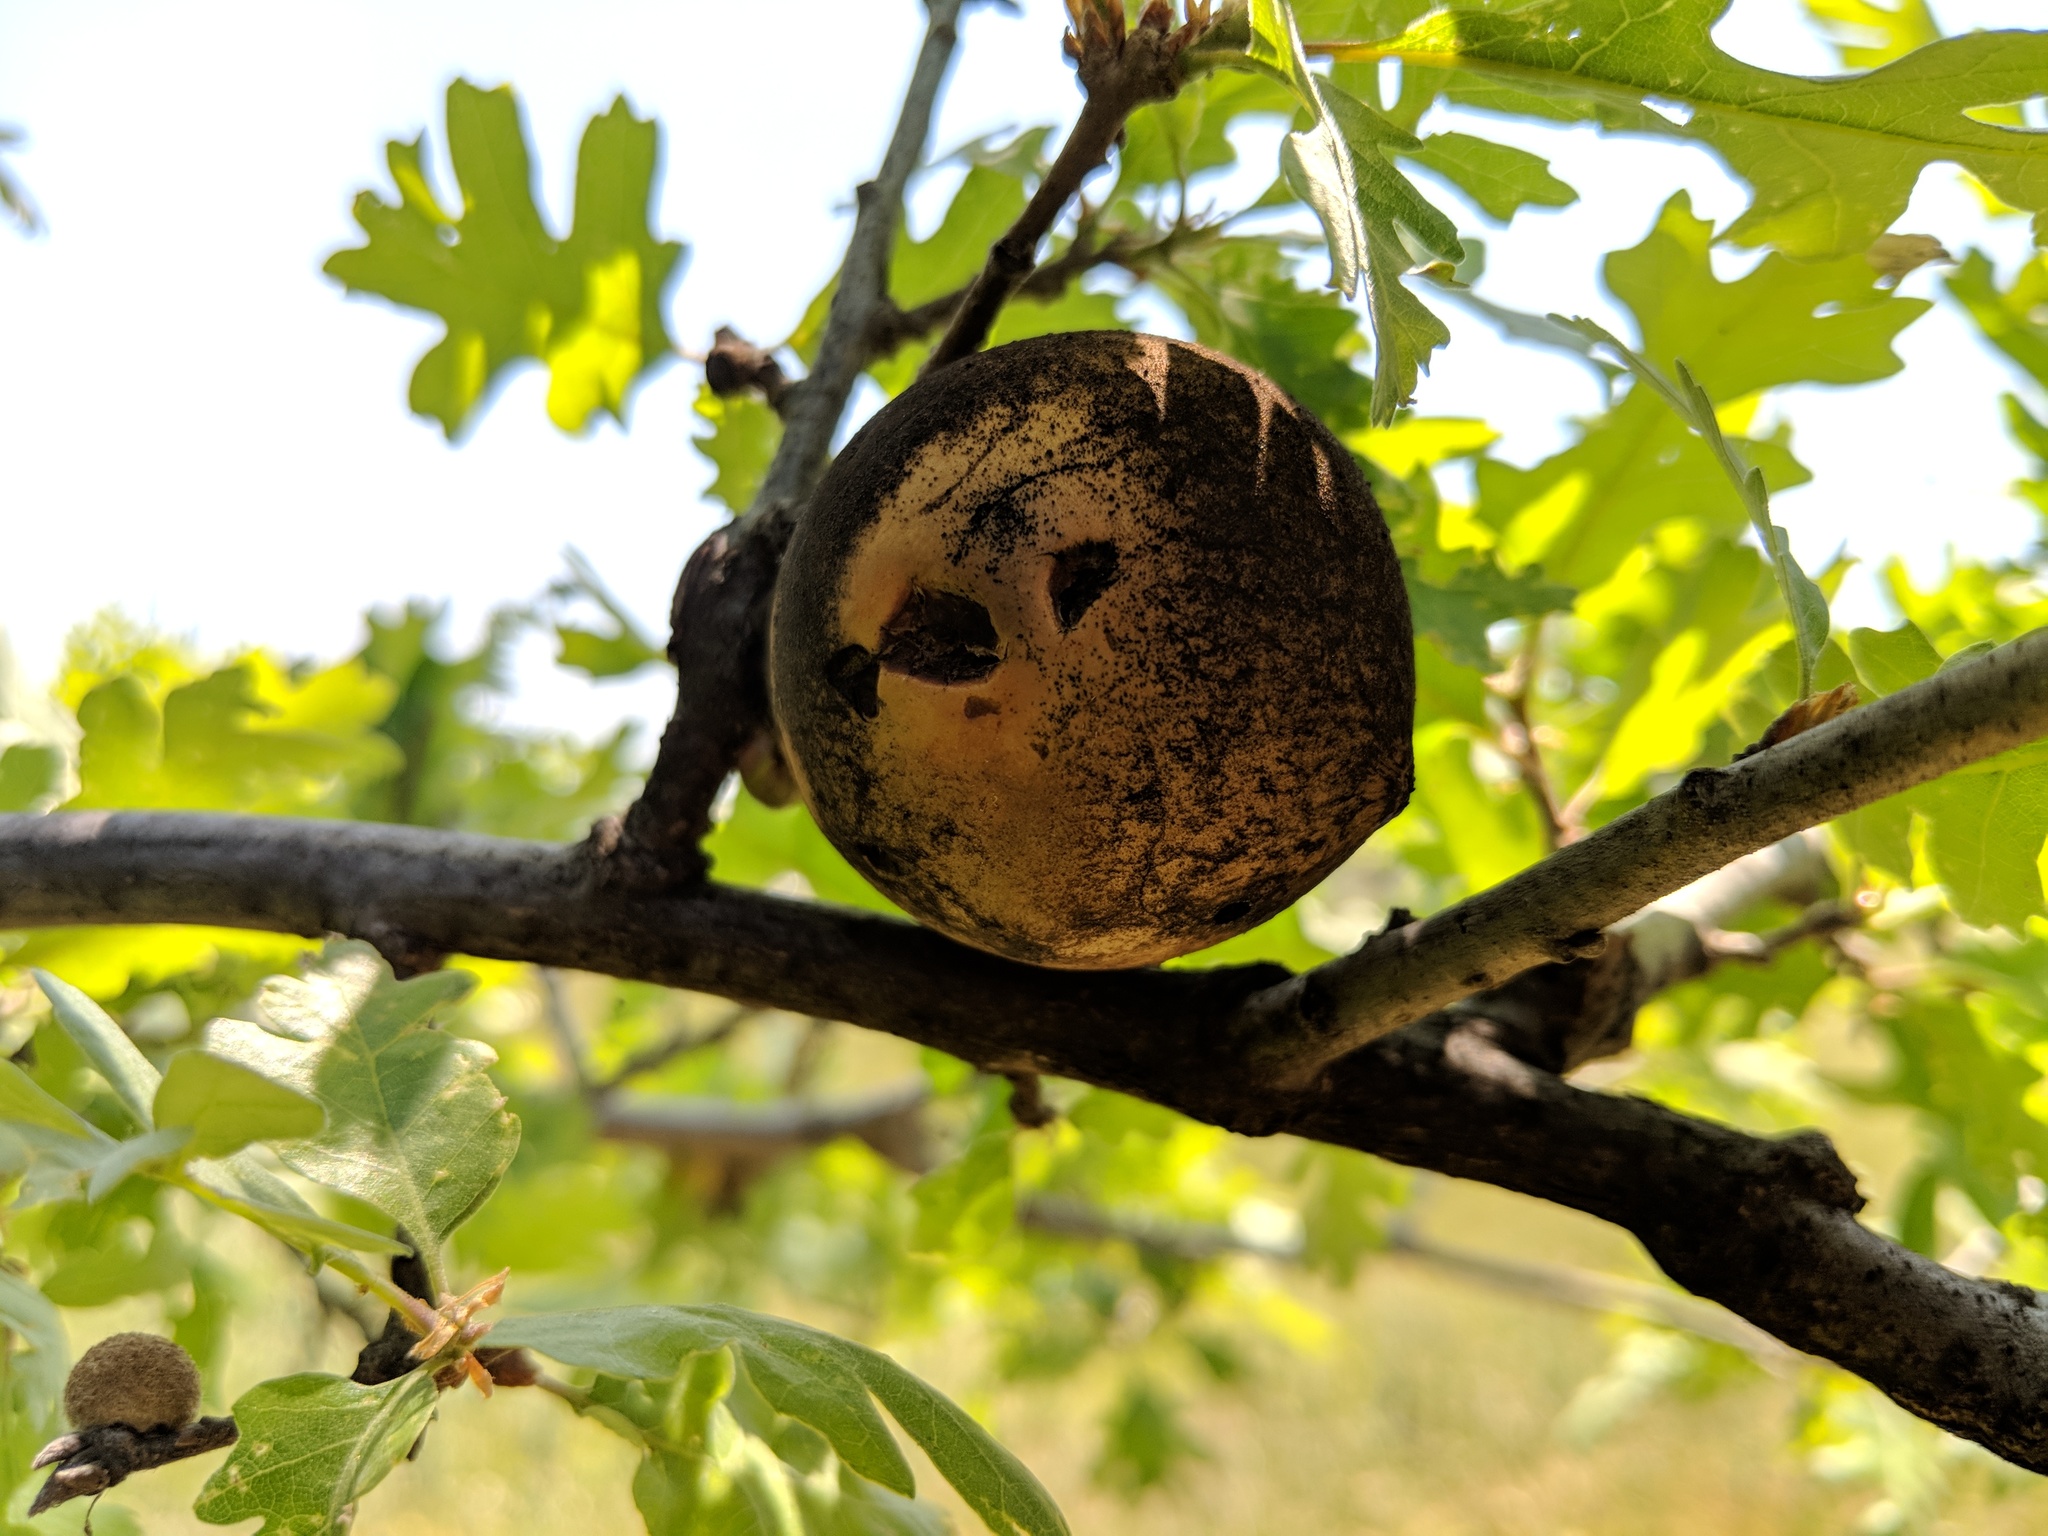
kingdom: Animalia
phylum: Arthropoda
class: Insecta
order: Hymenoptera
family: Cynipidae
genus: Andricus
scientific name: Andricus quercuscalifornicus
